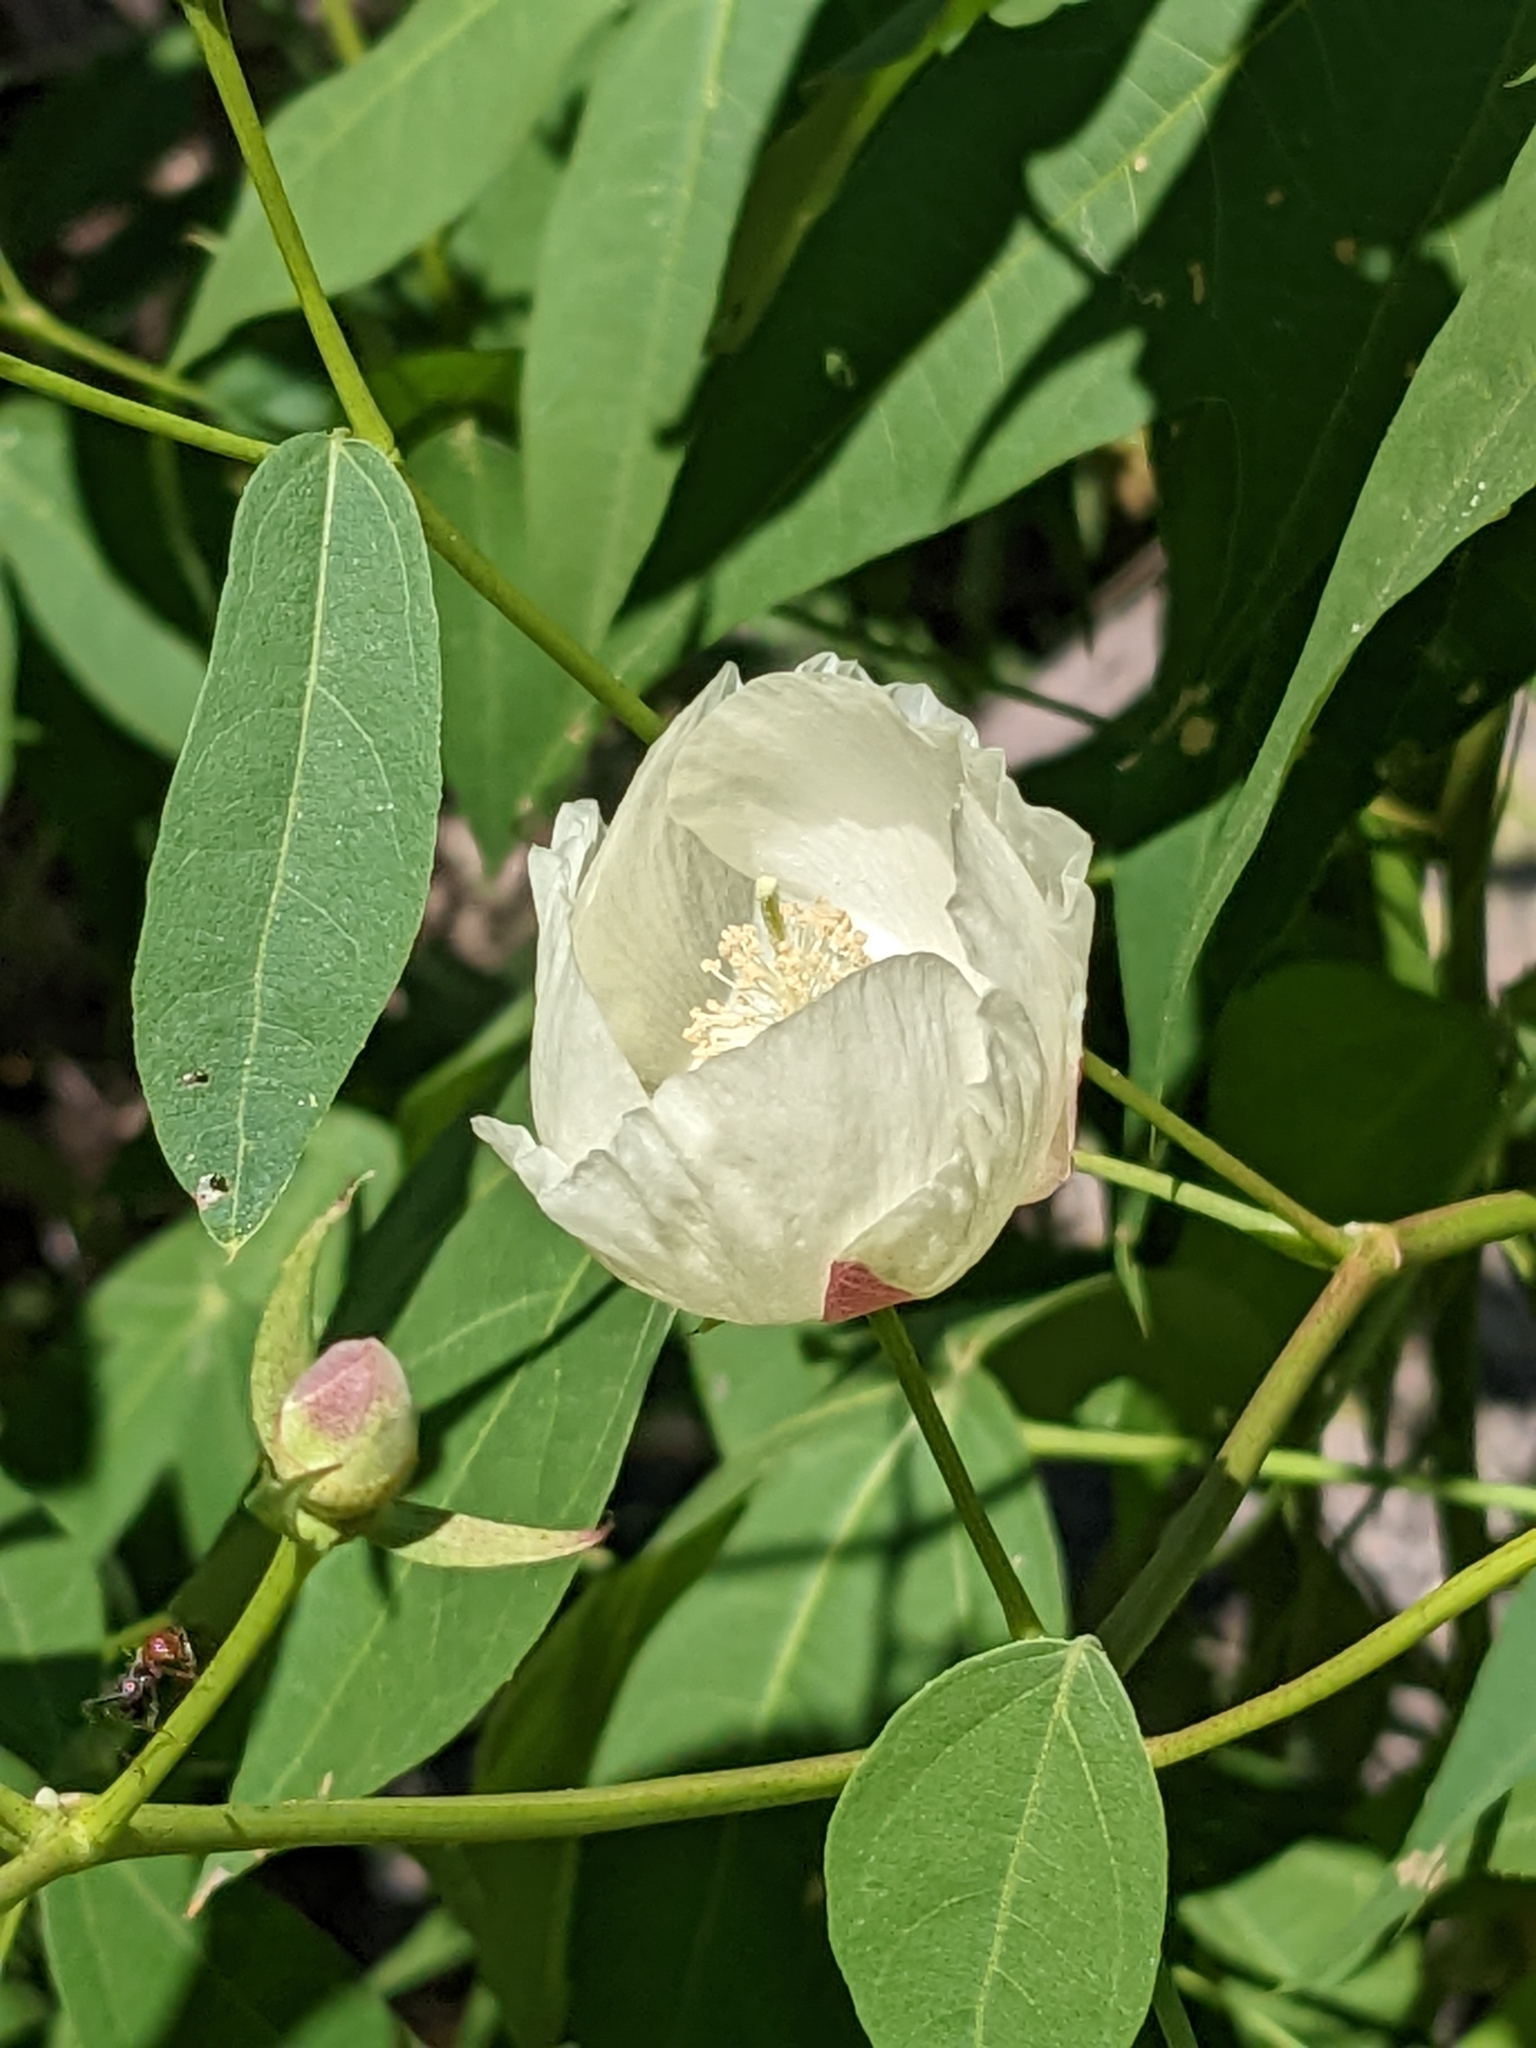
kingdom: Plantae
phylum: Tracheophyta
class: Magnoliopsida
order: Malvales
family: Malvaceae
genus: Gossypium
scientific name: Gossypium thurberi
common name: Desert cotton
